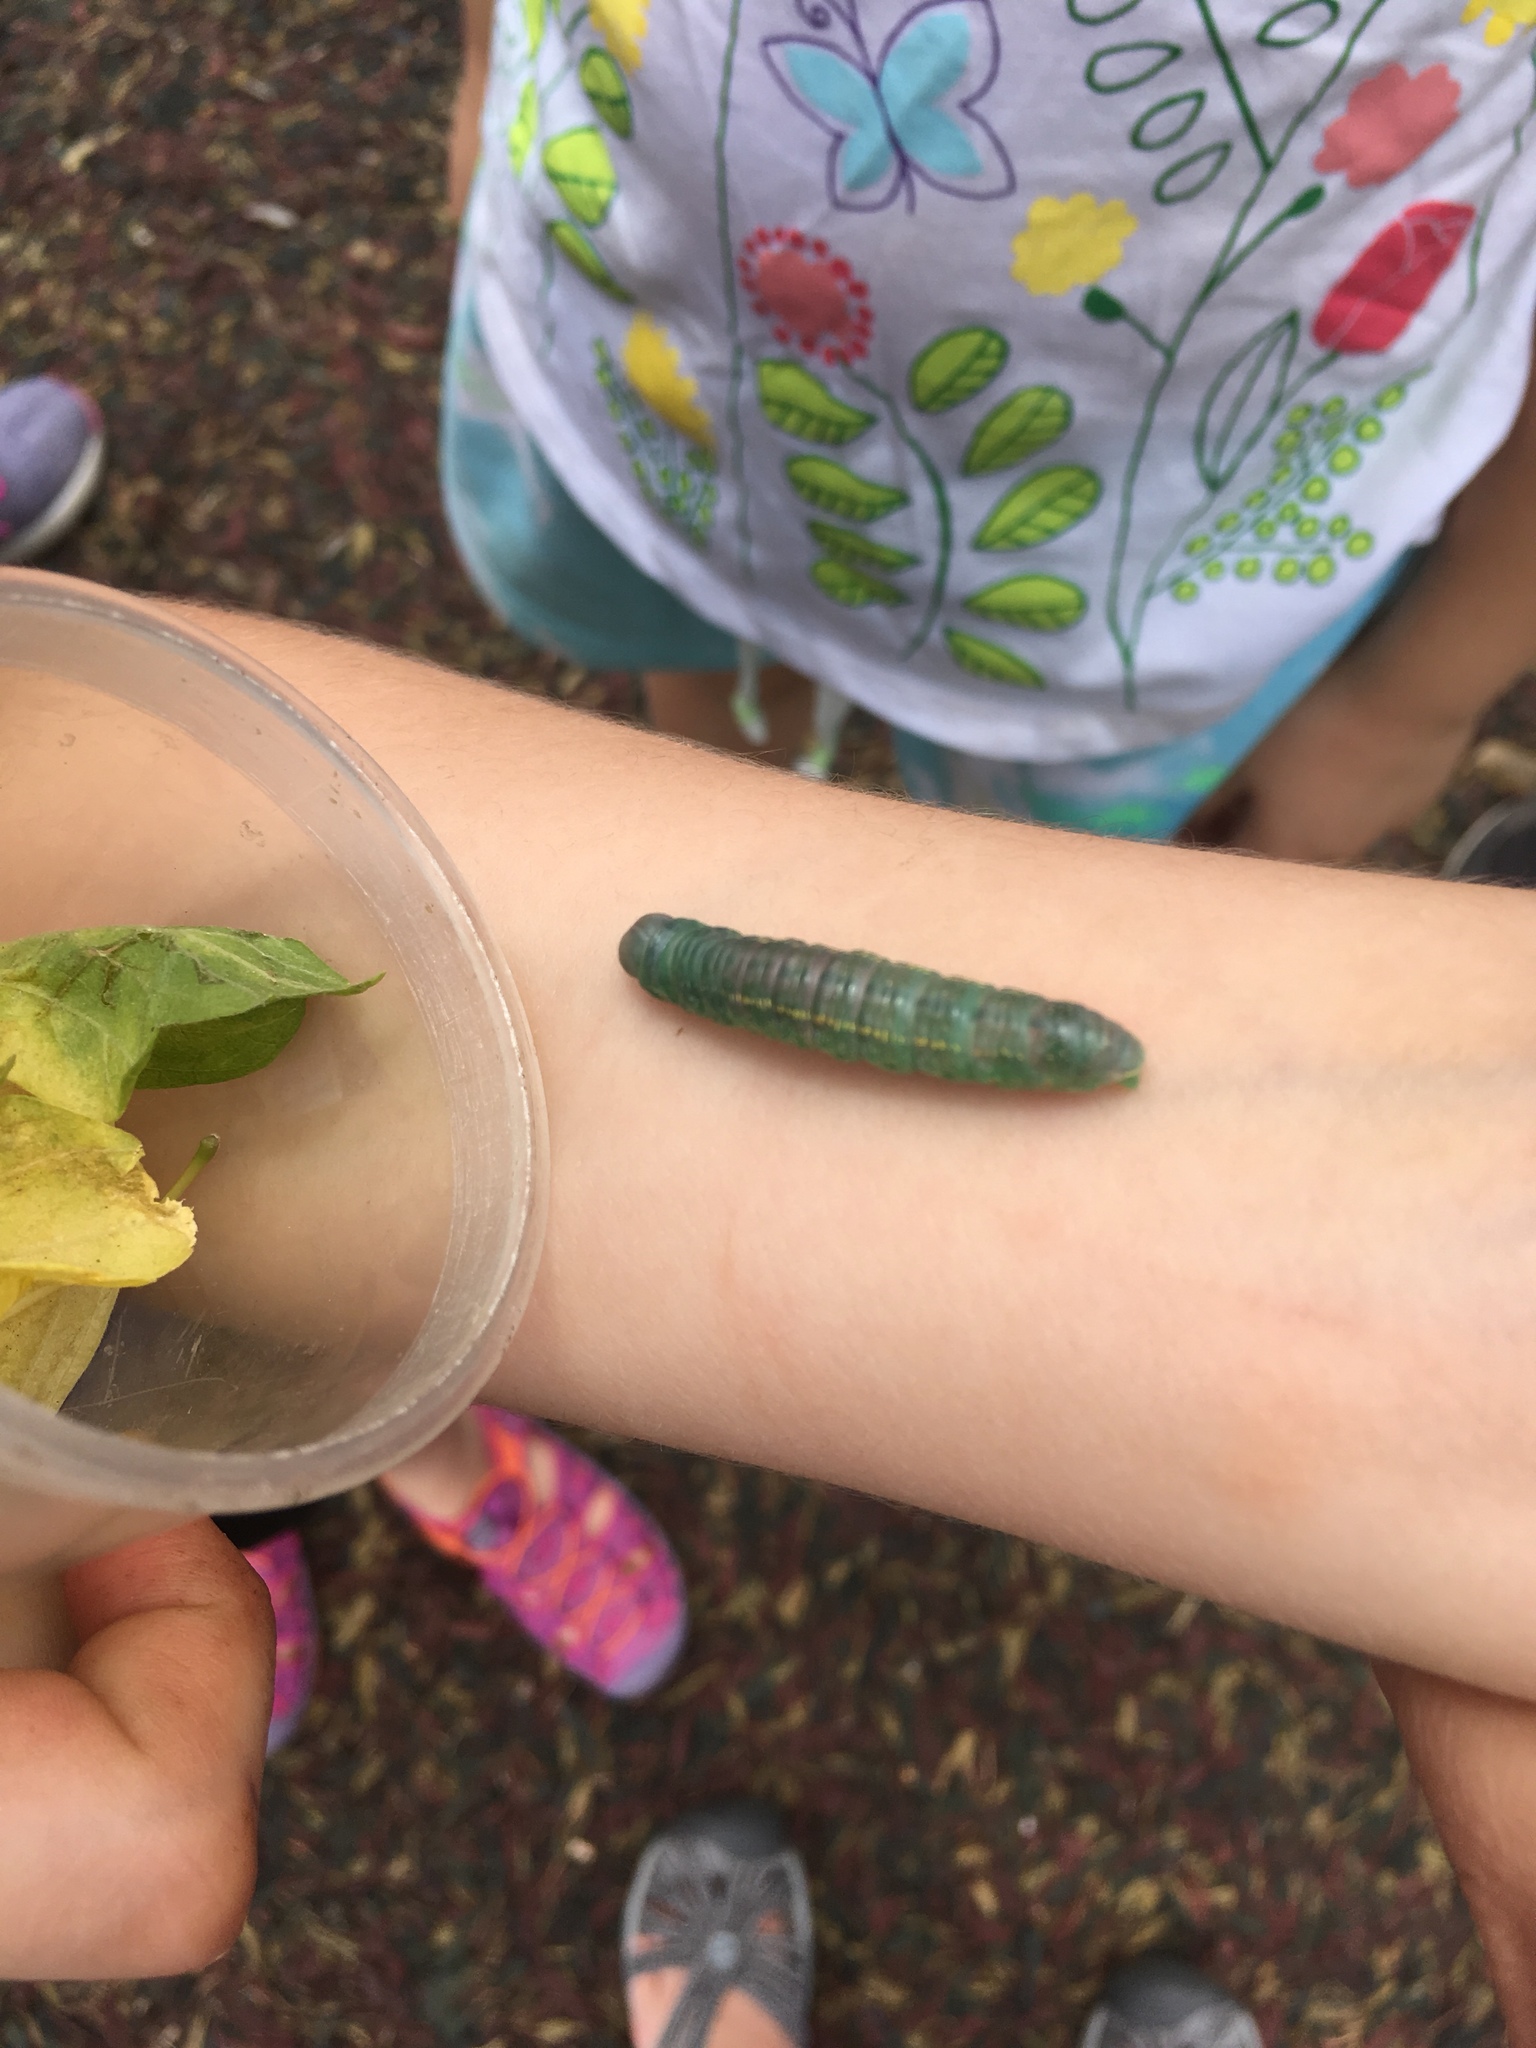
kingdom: Animalia
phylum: Arthropoda
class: Insecta
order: Lepidoptera
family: Notodontidae
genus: Nadata
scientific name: Nadata gibbosa
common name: White-dotted prominent
